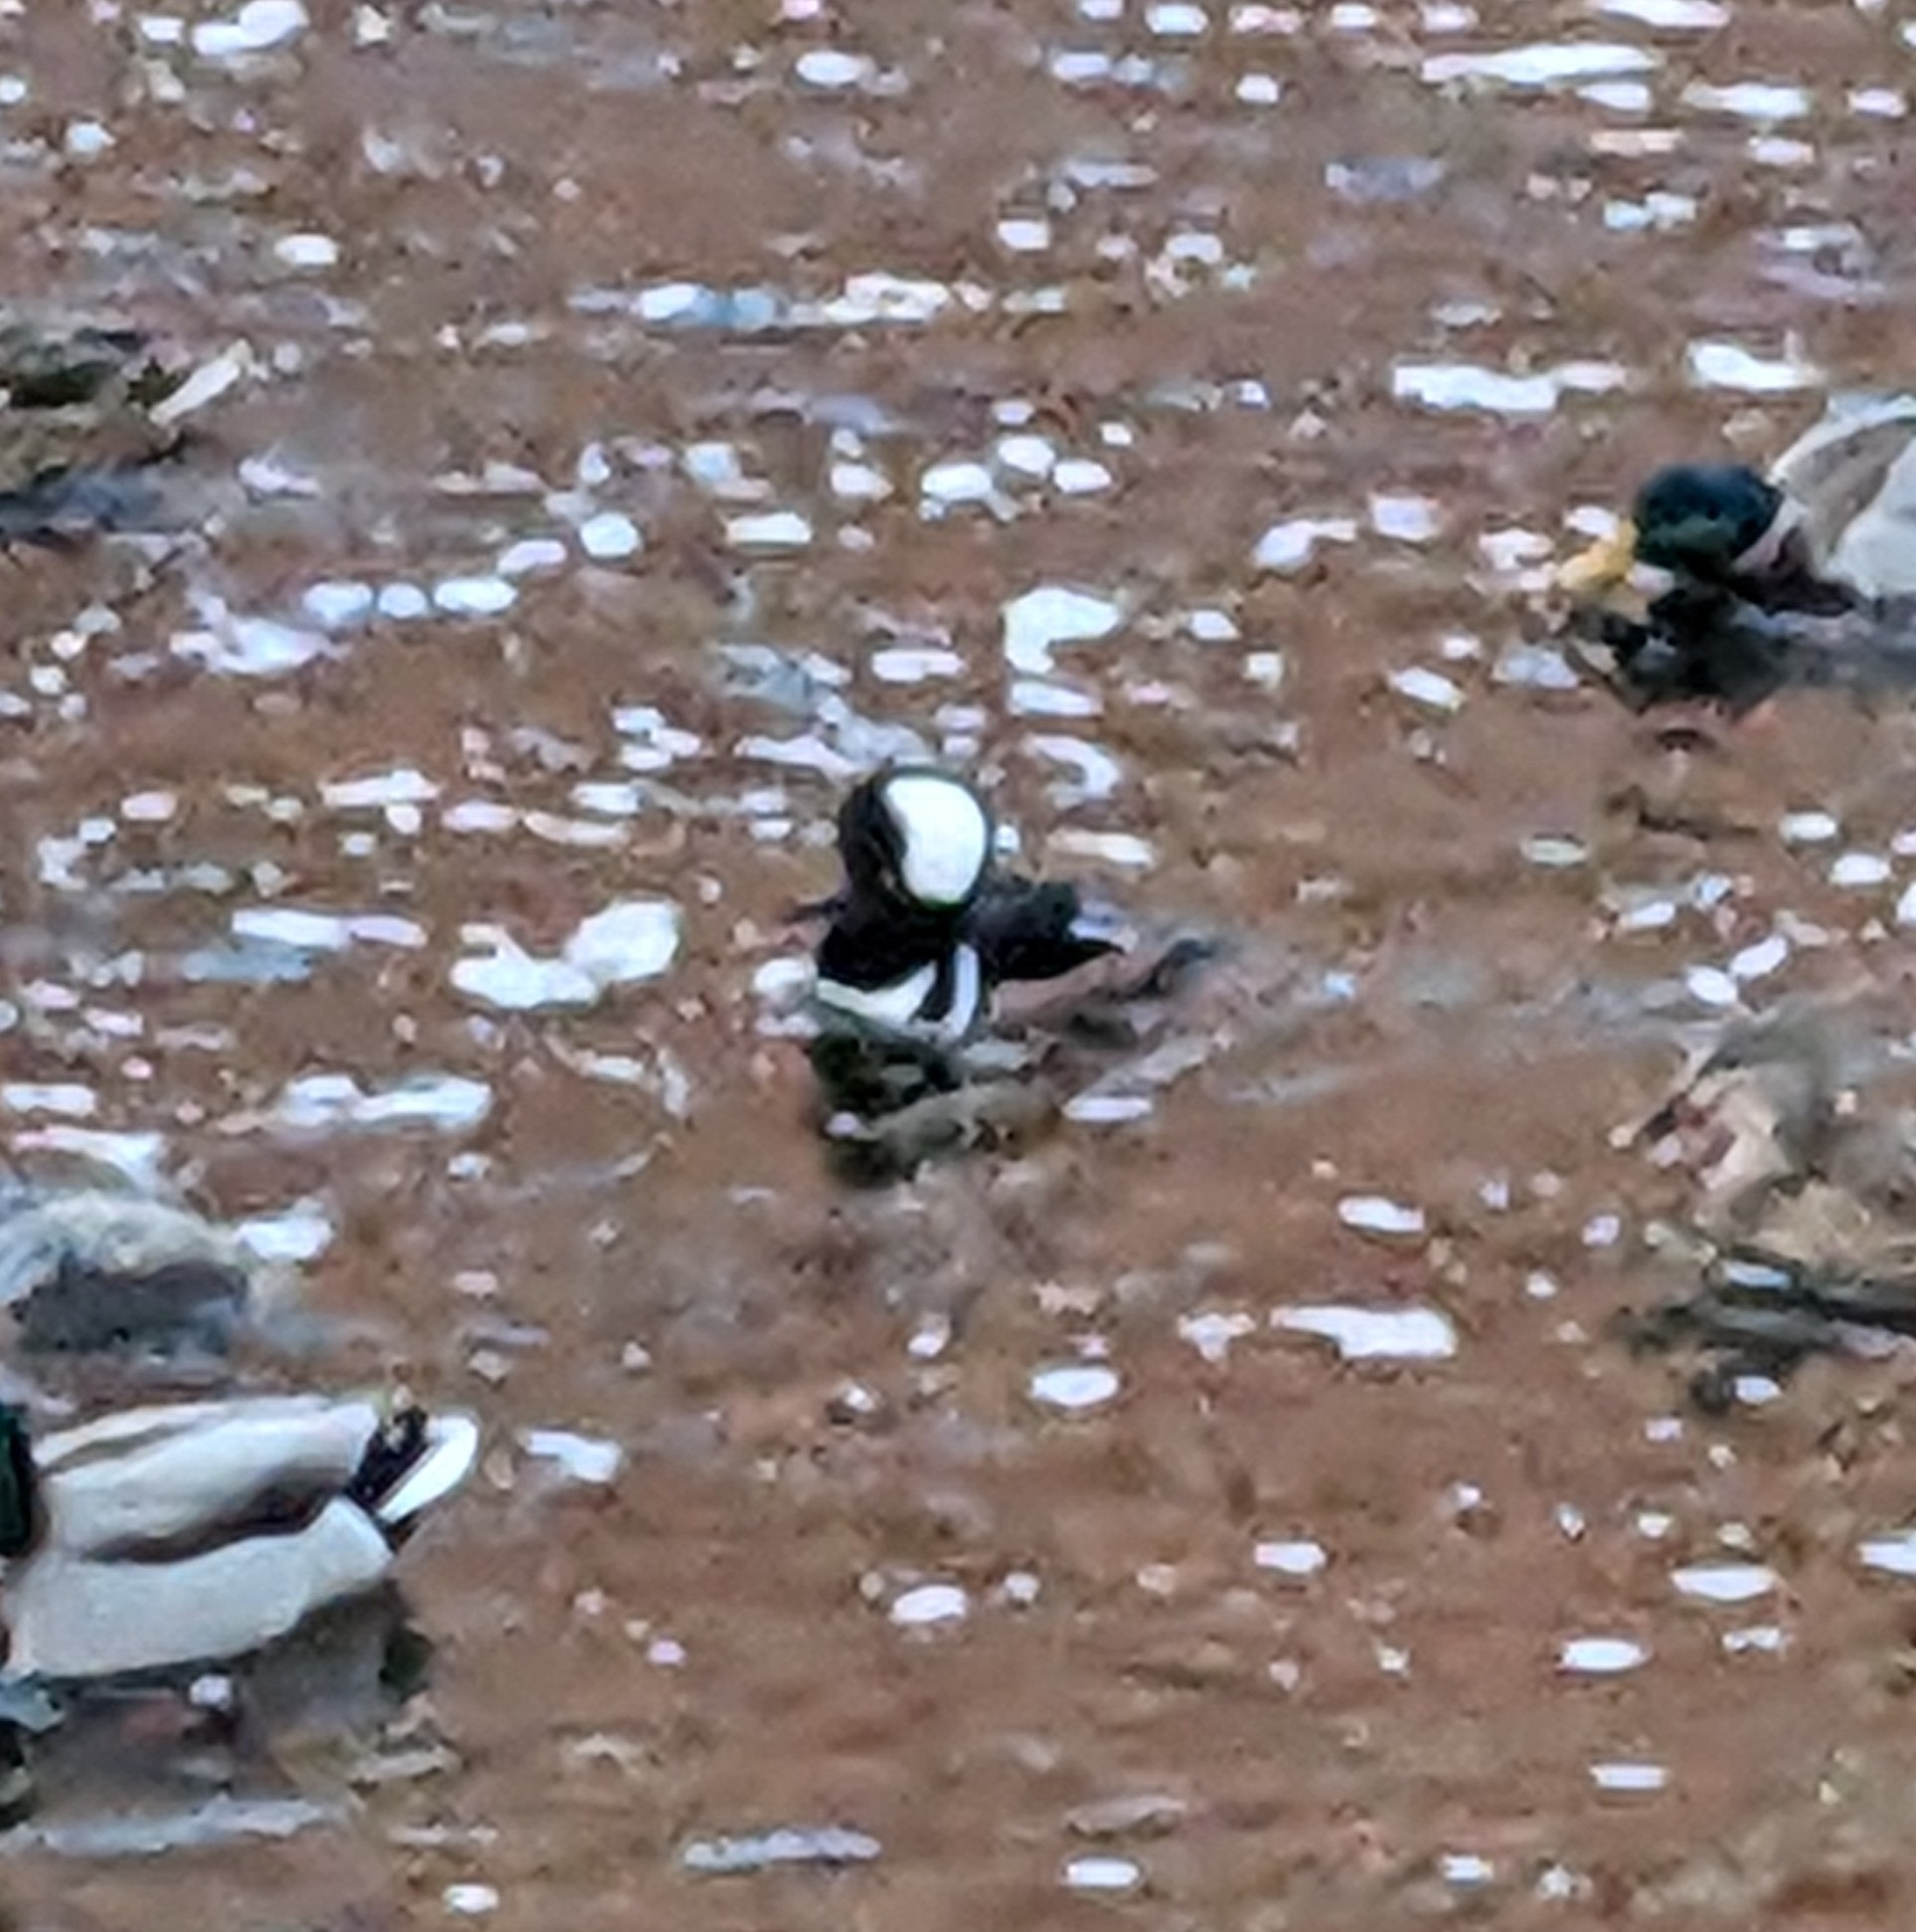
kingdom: Animalia
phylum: Chordata
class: Aves
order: Anseriformes
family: Anatidae
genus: Lophodytes
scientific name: Lophodytes cucullatus
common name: Hooded merganser
